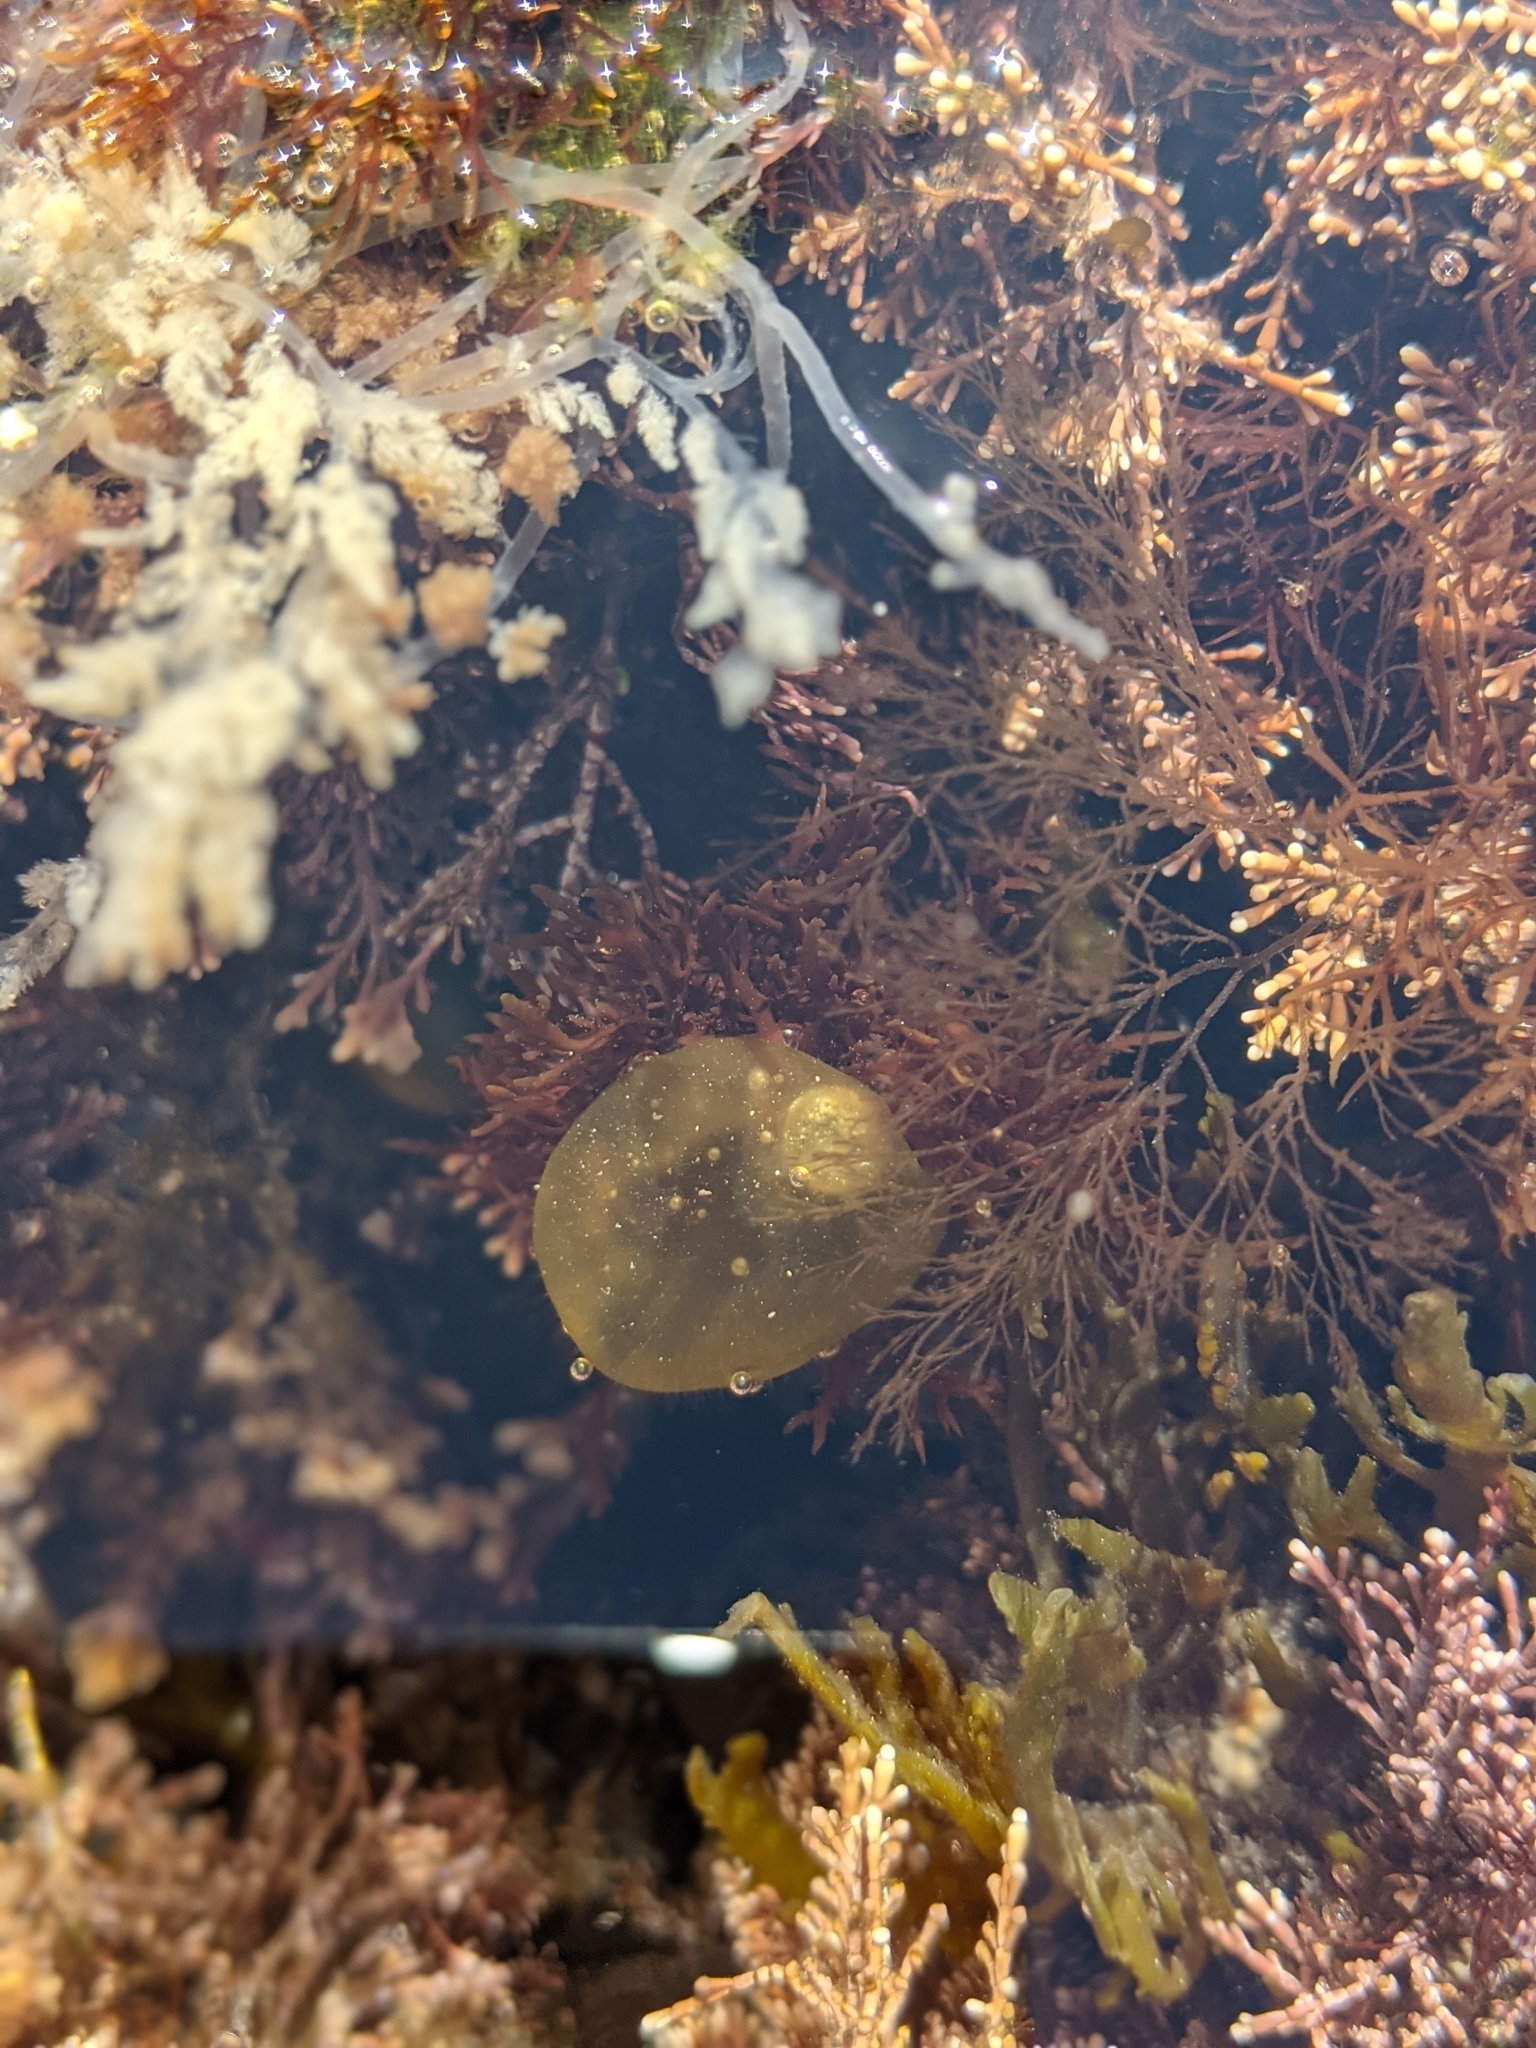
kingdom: Chromista
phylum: Ochrophyta
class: Phaeophyceae
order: Scytosiphonales
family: Scytosiphonaceae
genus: Colpomenia
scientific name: Colpomenia peregrina
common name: Oyster thief
